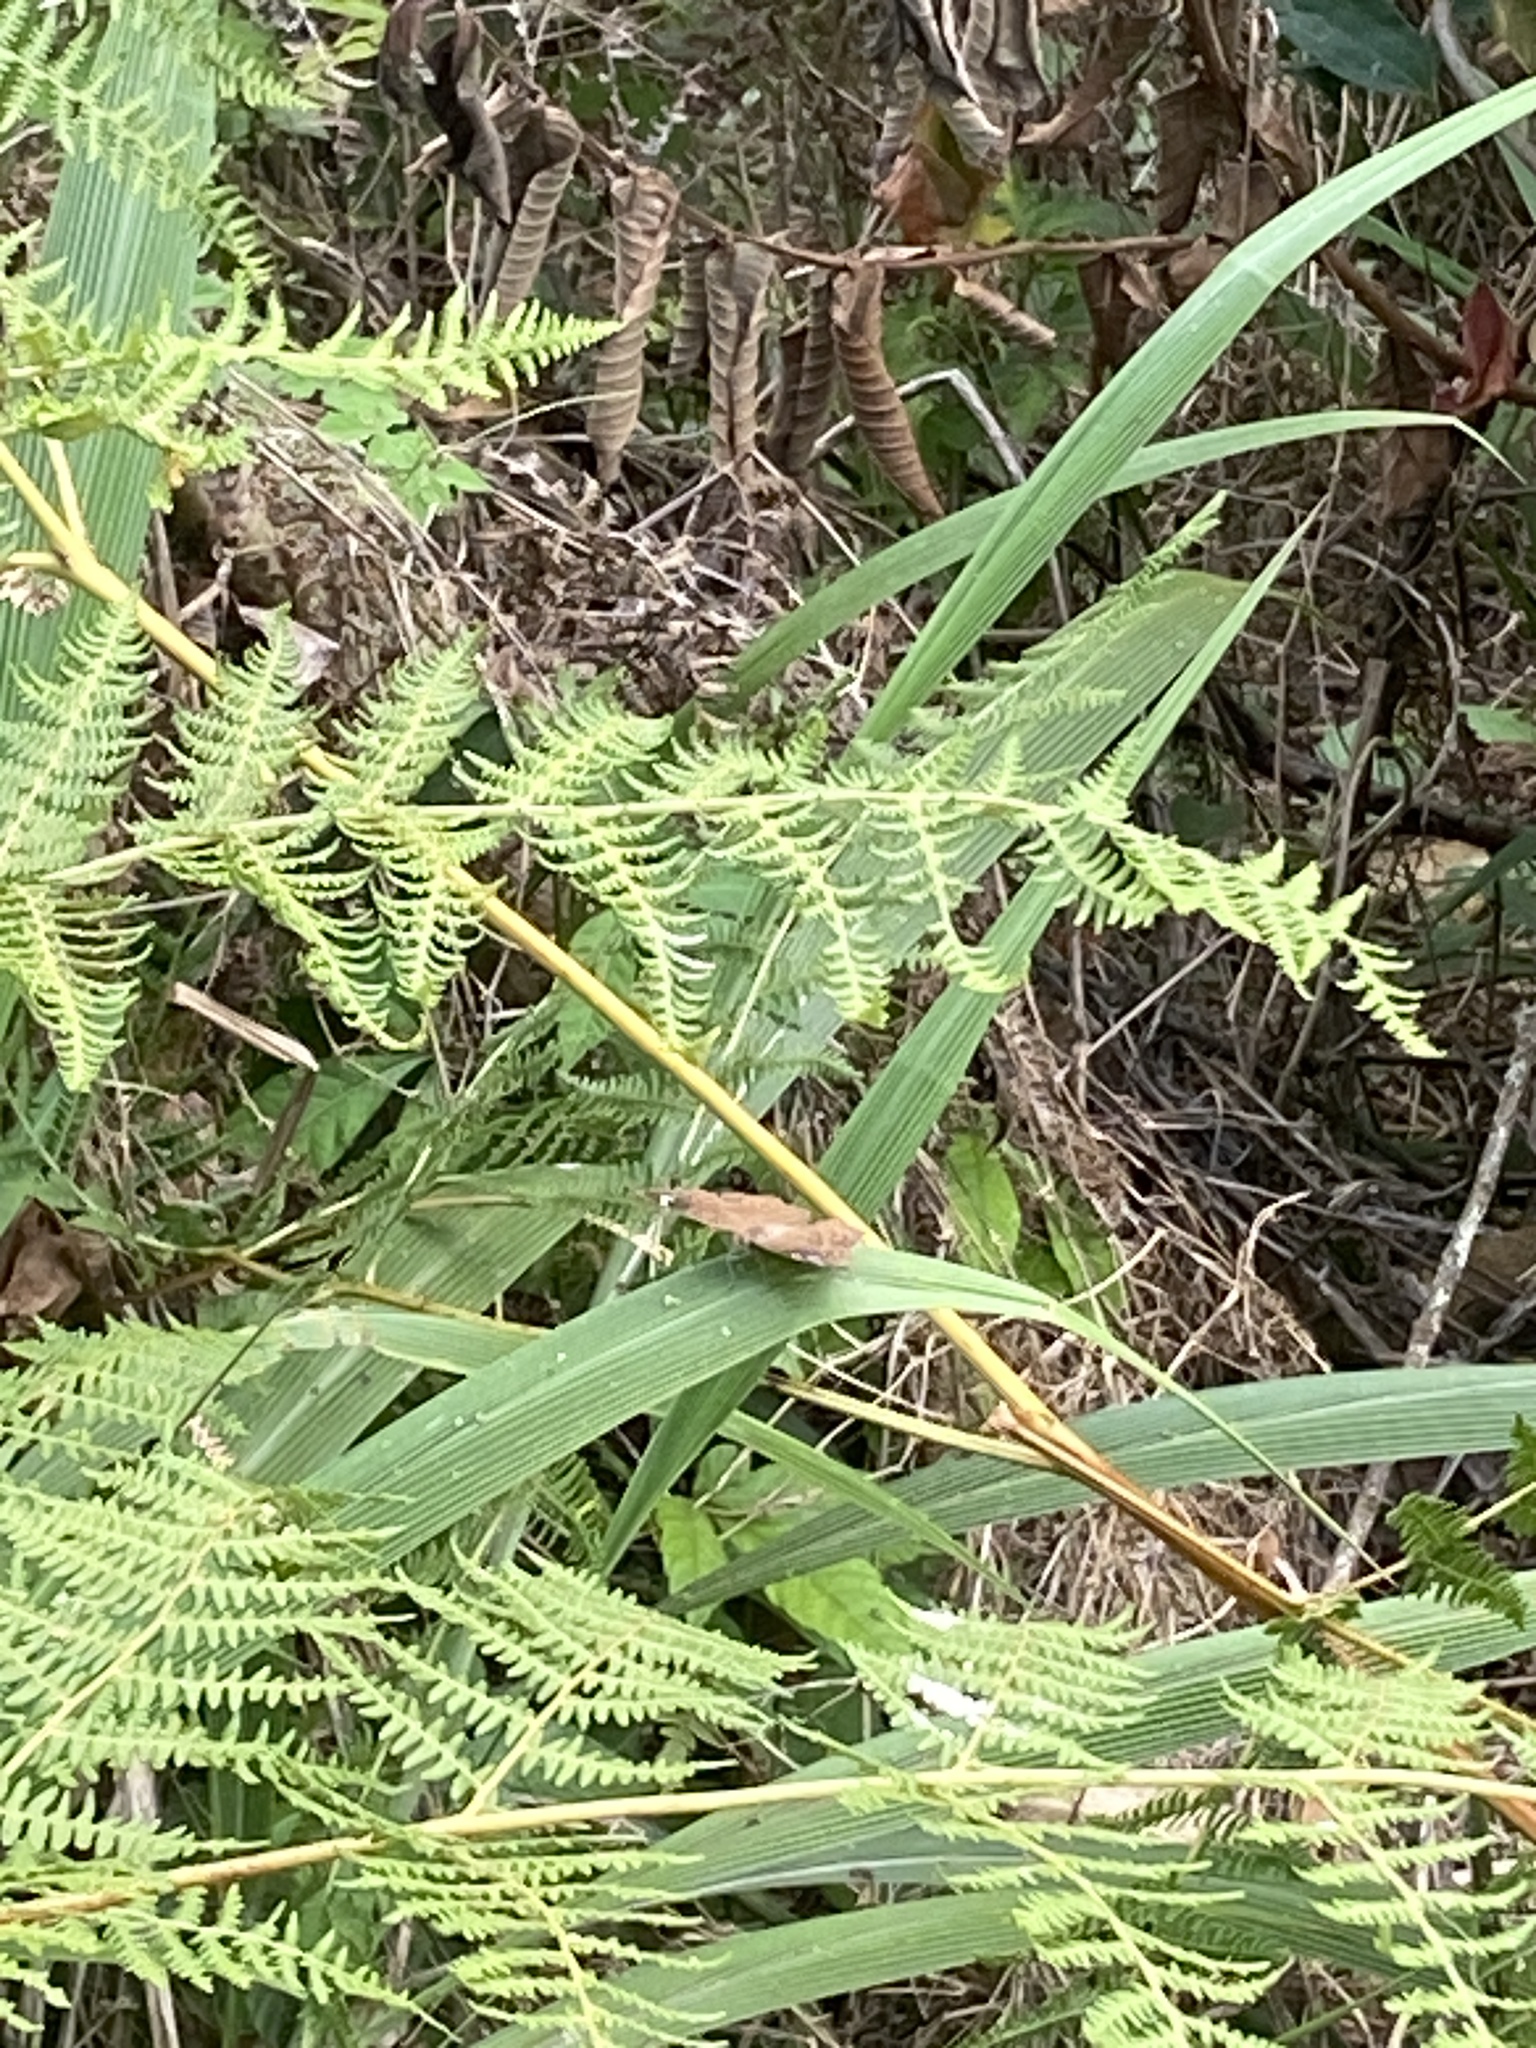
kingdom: Animalia
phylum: Arthropoda
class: Insecta
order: Lepidoptera
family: Nymphalidae
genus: Junonia
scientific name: Junonia natalica
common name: Brown pansy
